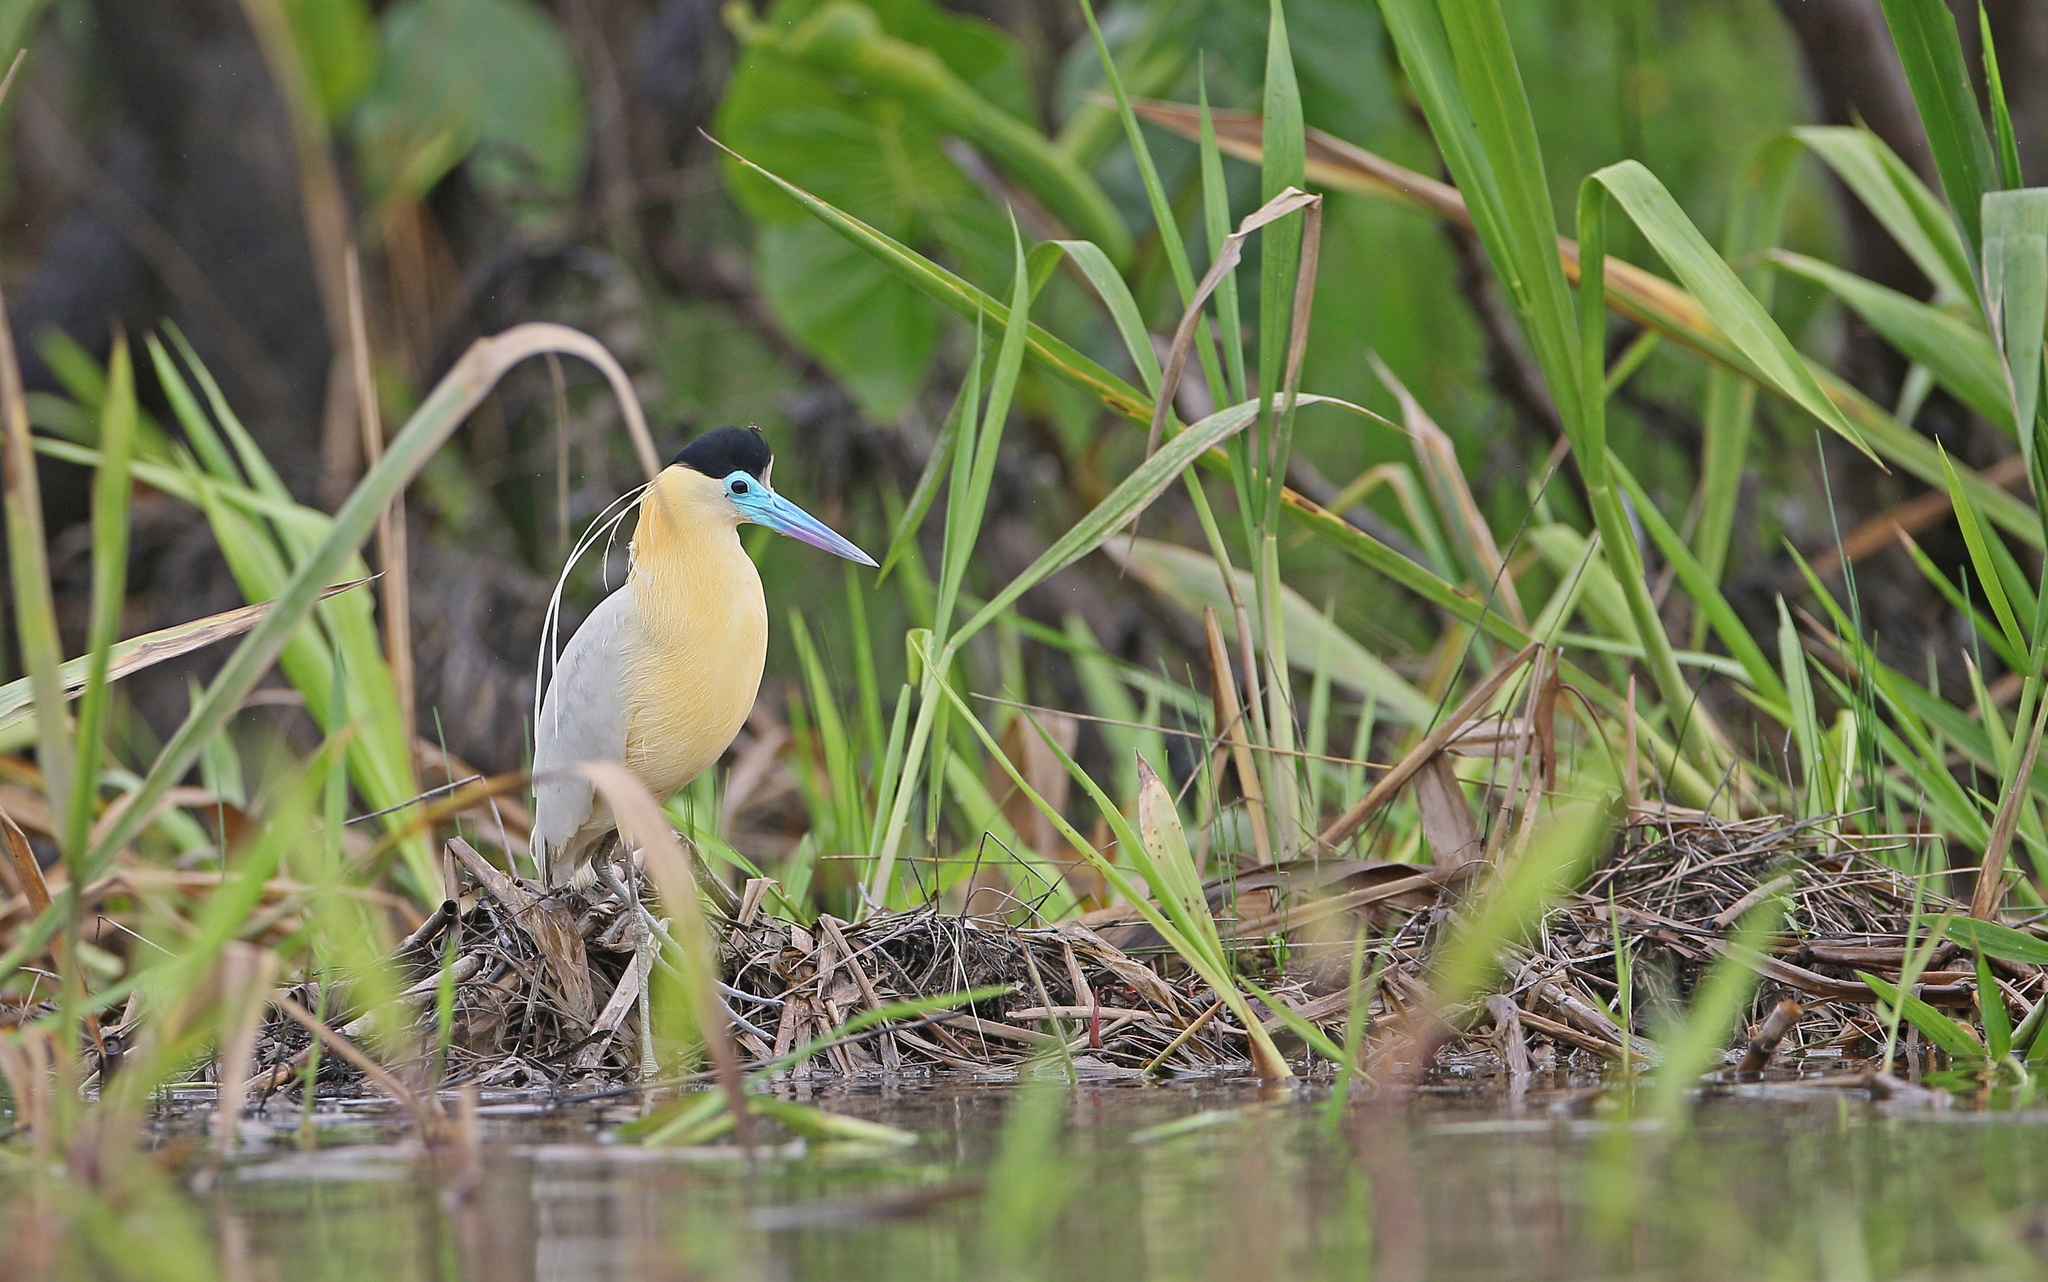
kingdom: Animalia
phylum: Chordata
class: Aves
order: Pelecaniformes
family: Ardeidae
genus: Pilherodius
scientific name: Pilherodius pileatus
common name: Capped heron
